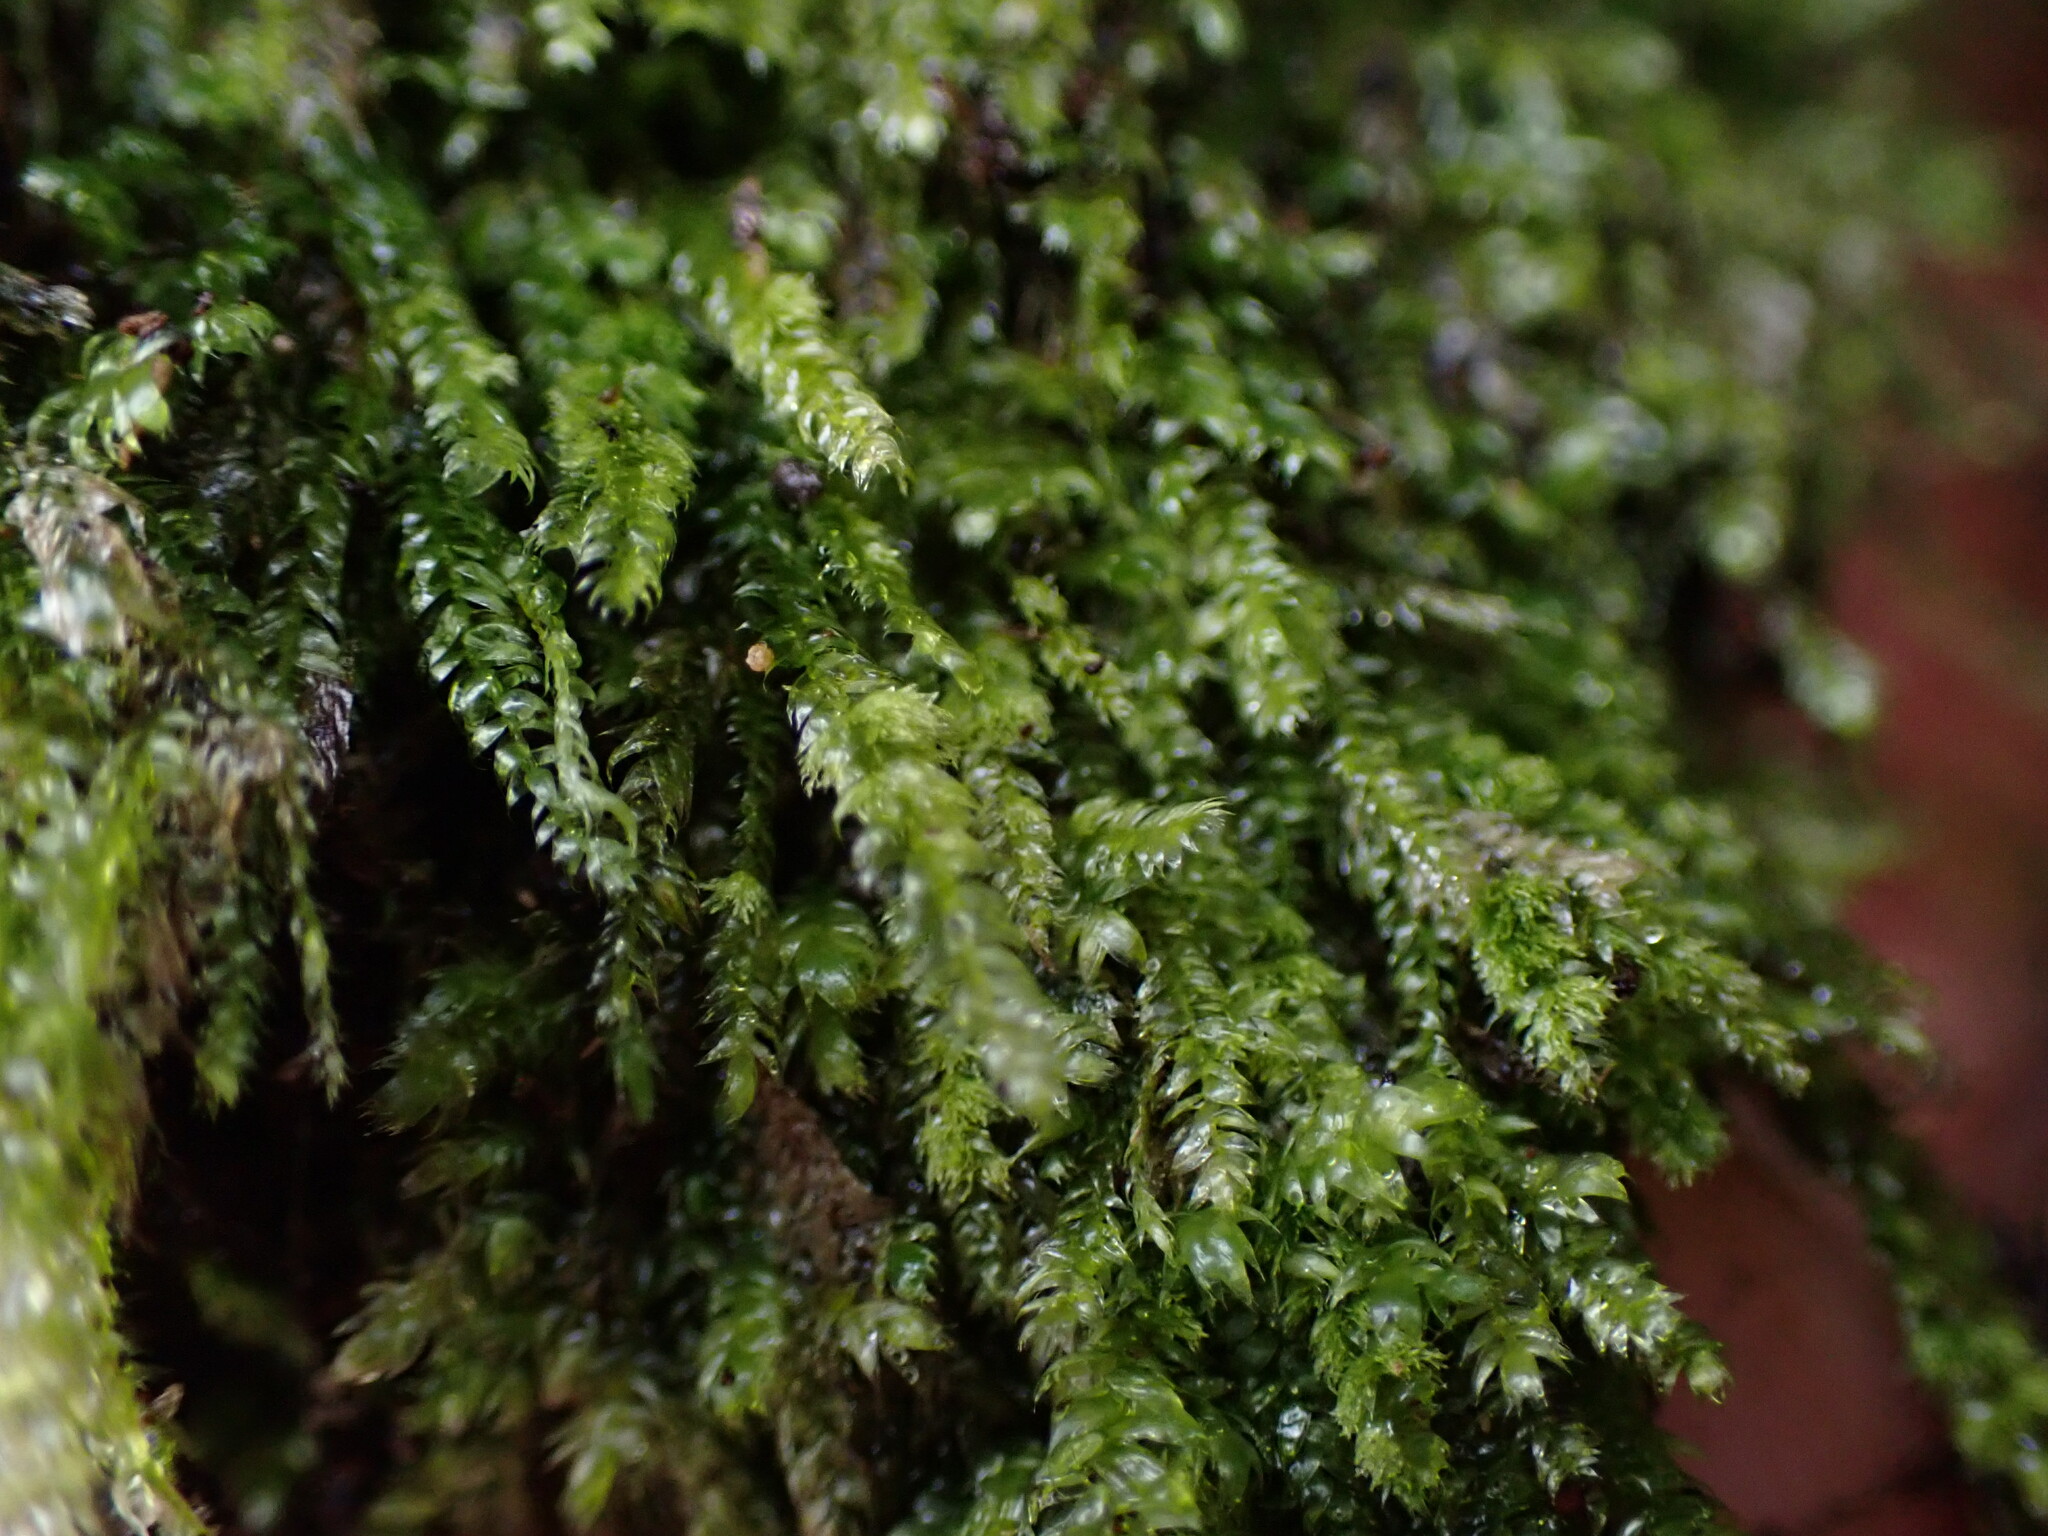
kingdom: Plantae
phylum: Bryophyta
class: Bryopsida
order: Hypnales
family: Plagiotheciaceae
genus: Pseudotaxiphyllum
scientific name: Pseudotaxiphyllum elegans
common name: Elegant silk moss
